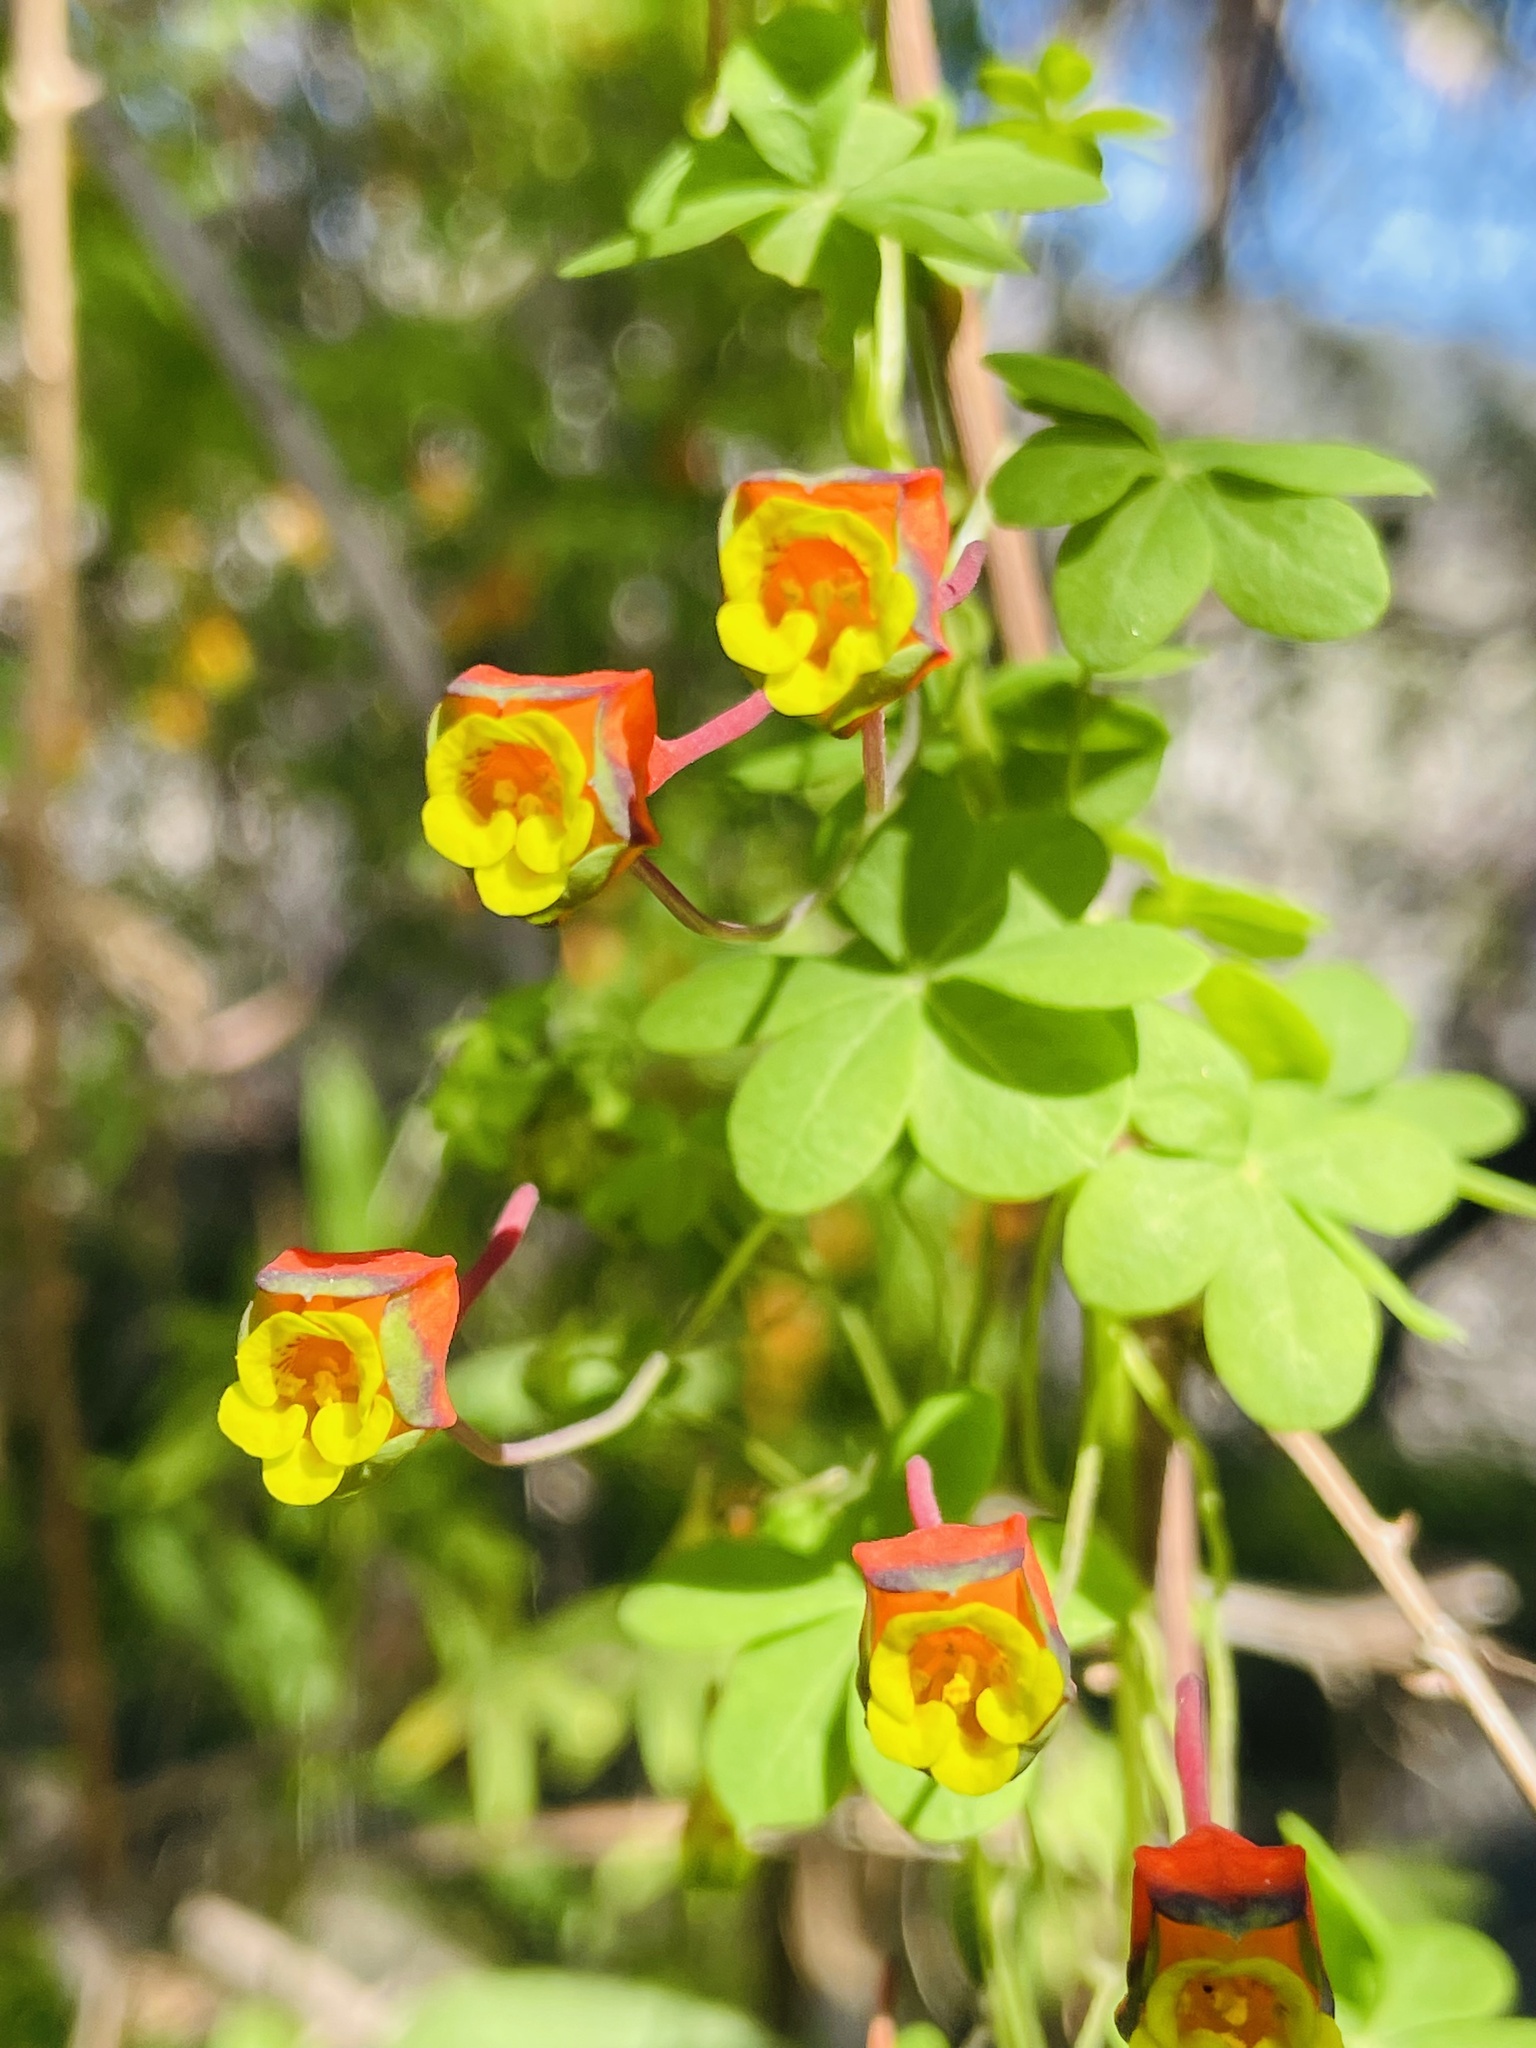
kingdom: Plantae
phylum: Tracheophyta
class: Magnoliopsida
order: Brassicales
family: Tropaeolaceae
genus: Tropaeolum
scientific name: Tropaeolum tricolor
